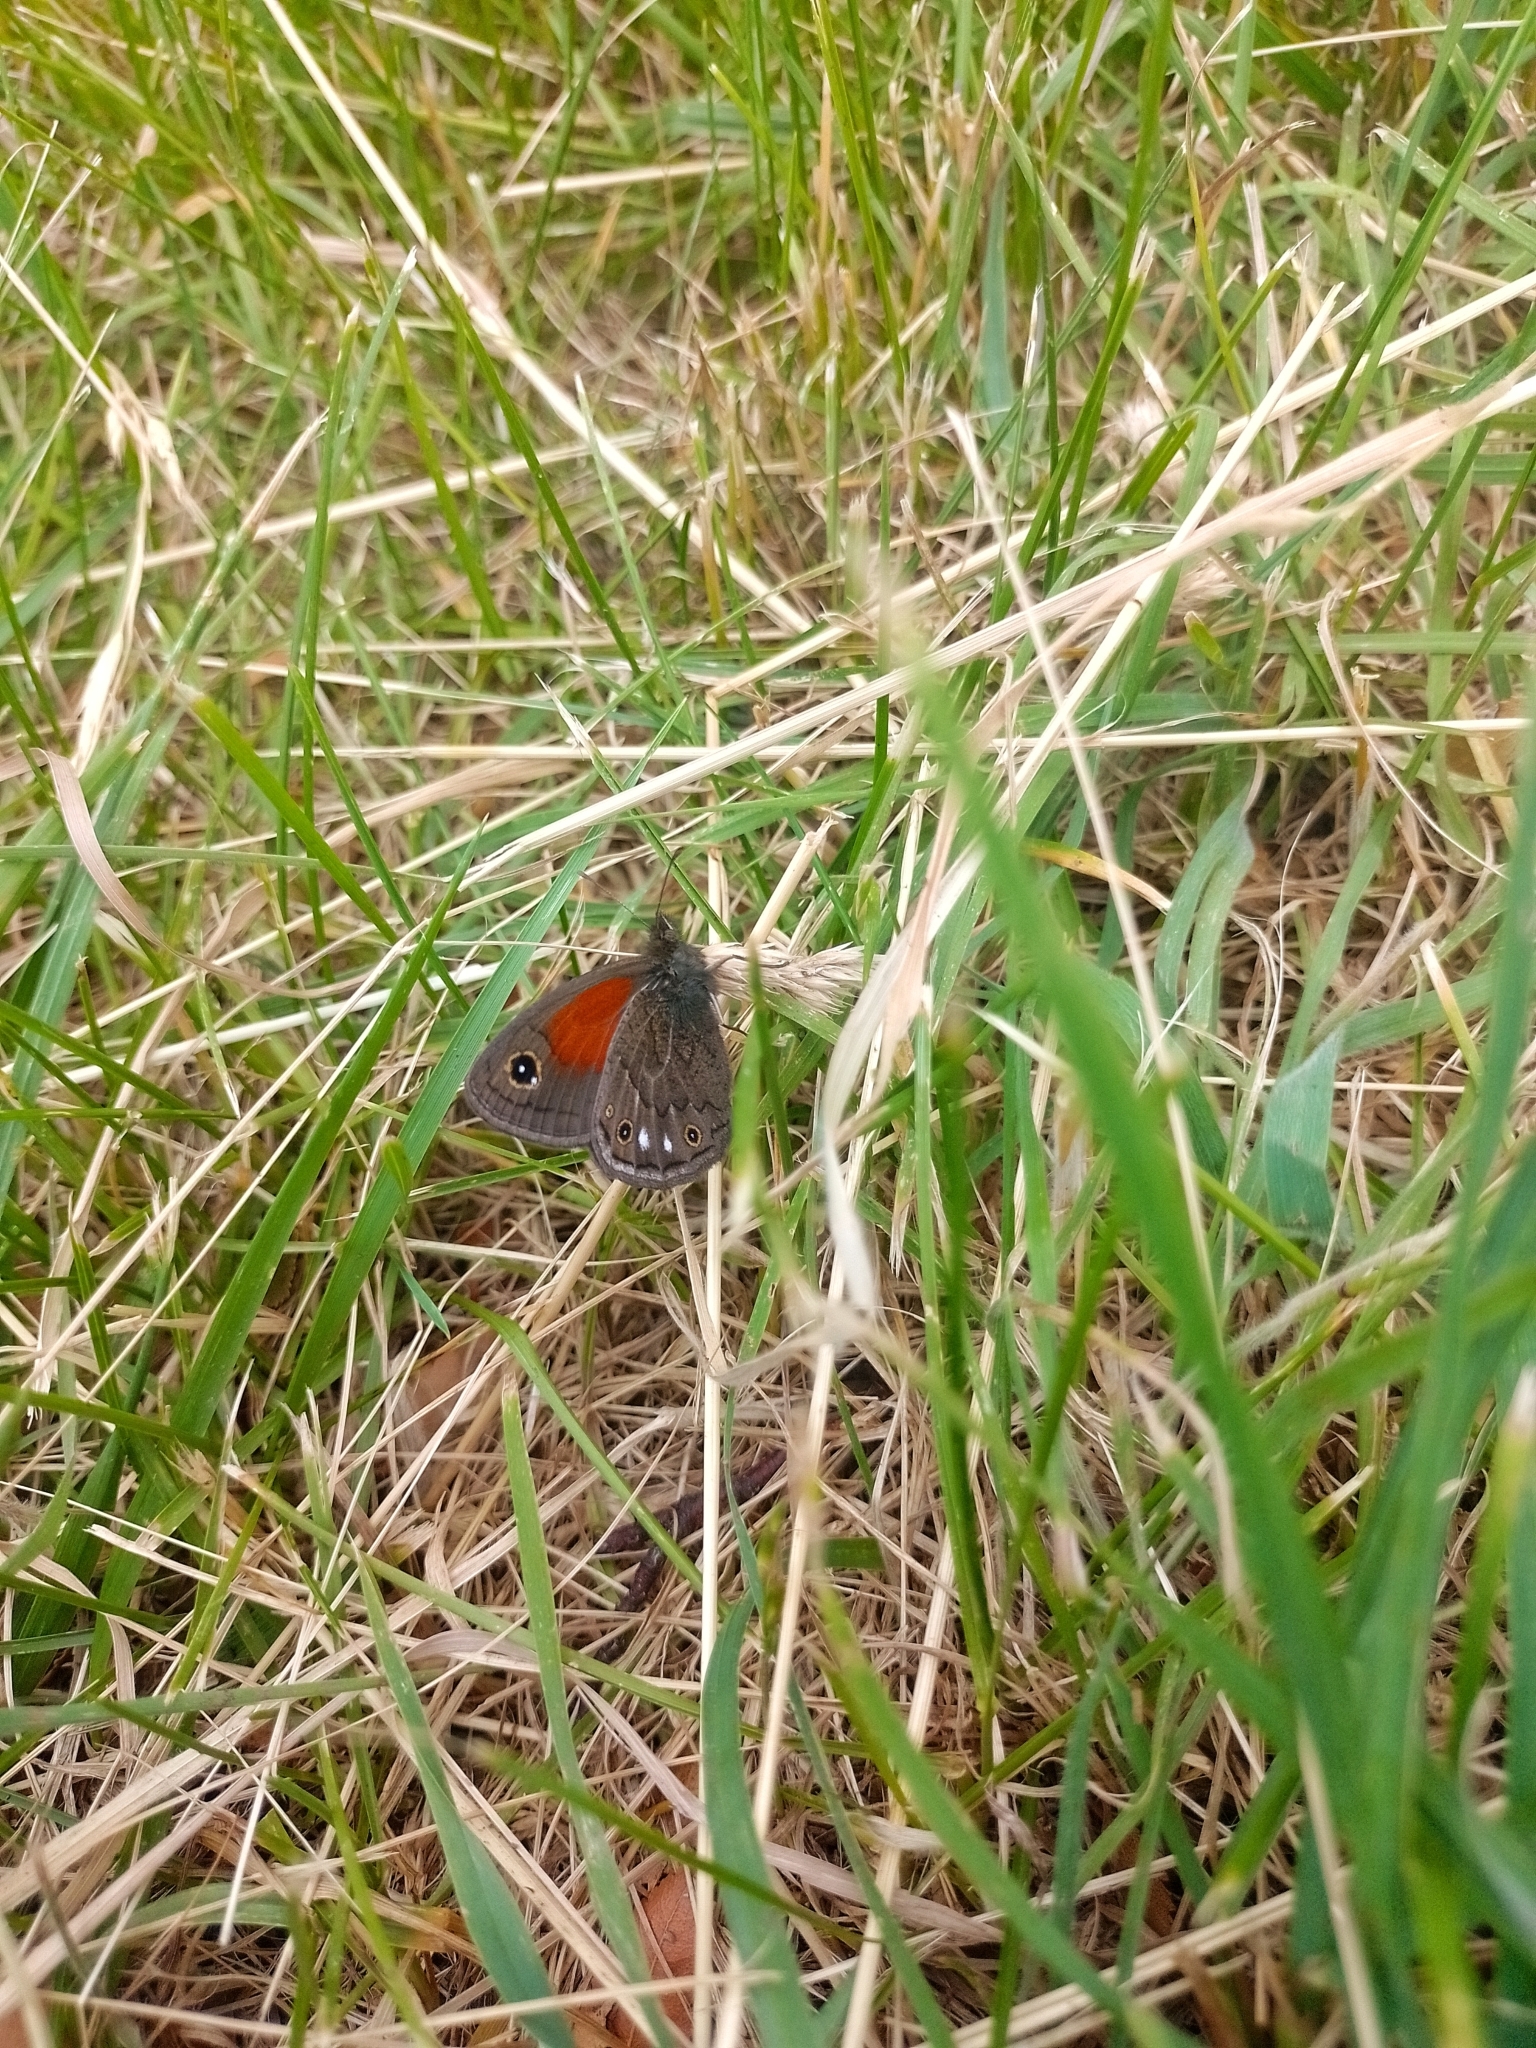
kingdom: Animalia
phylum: Arthropoda
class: Insecta
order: Lepidoptera
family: Nymphalidae
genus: Cosmosatyrus
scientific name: Cosmosatyrus leptoneuroides
